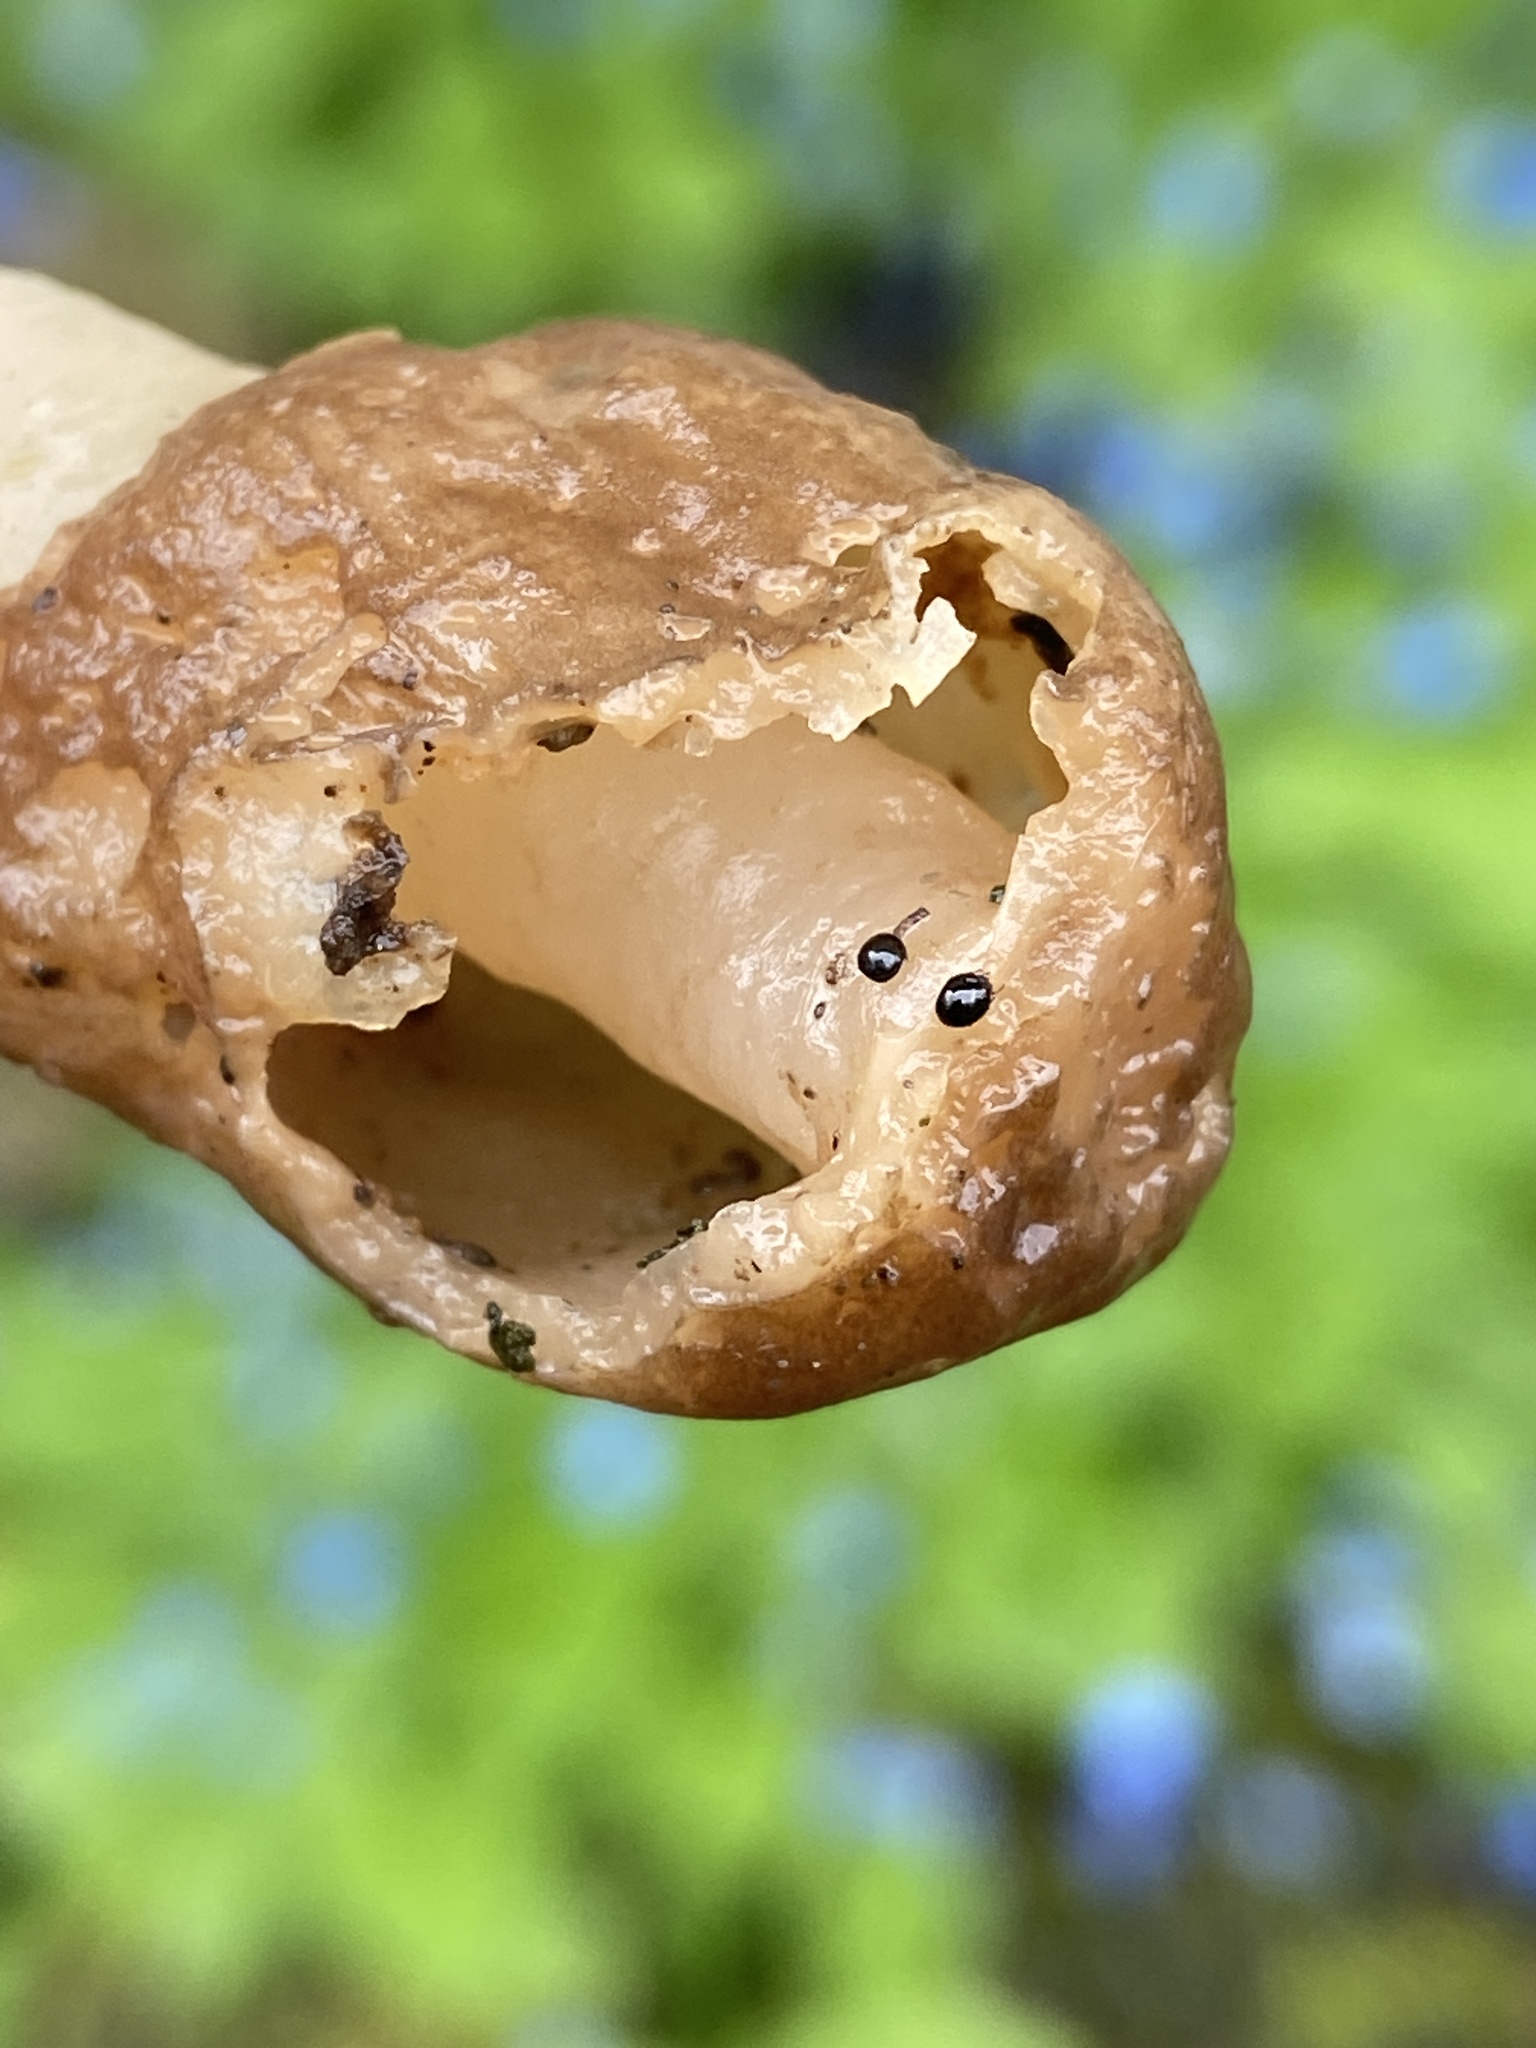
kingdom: Fungi
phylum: Ascomycota
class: Pezizomycetes
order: Pezizales
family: Morchellaceae
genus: Verpa
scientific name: Verpa conica
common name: Thimble morel
